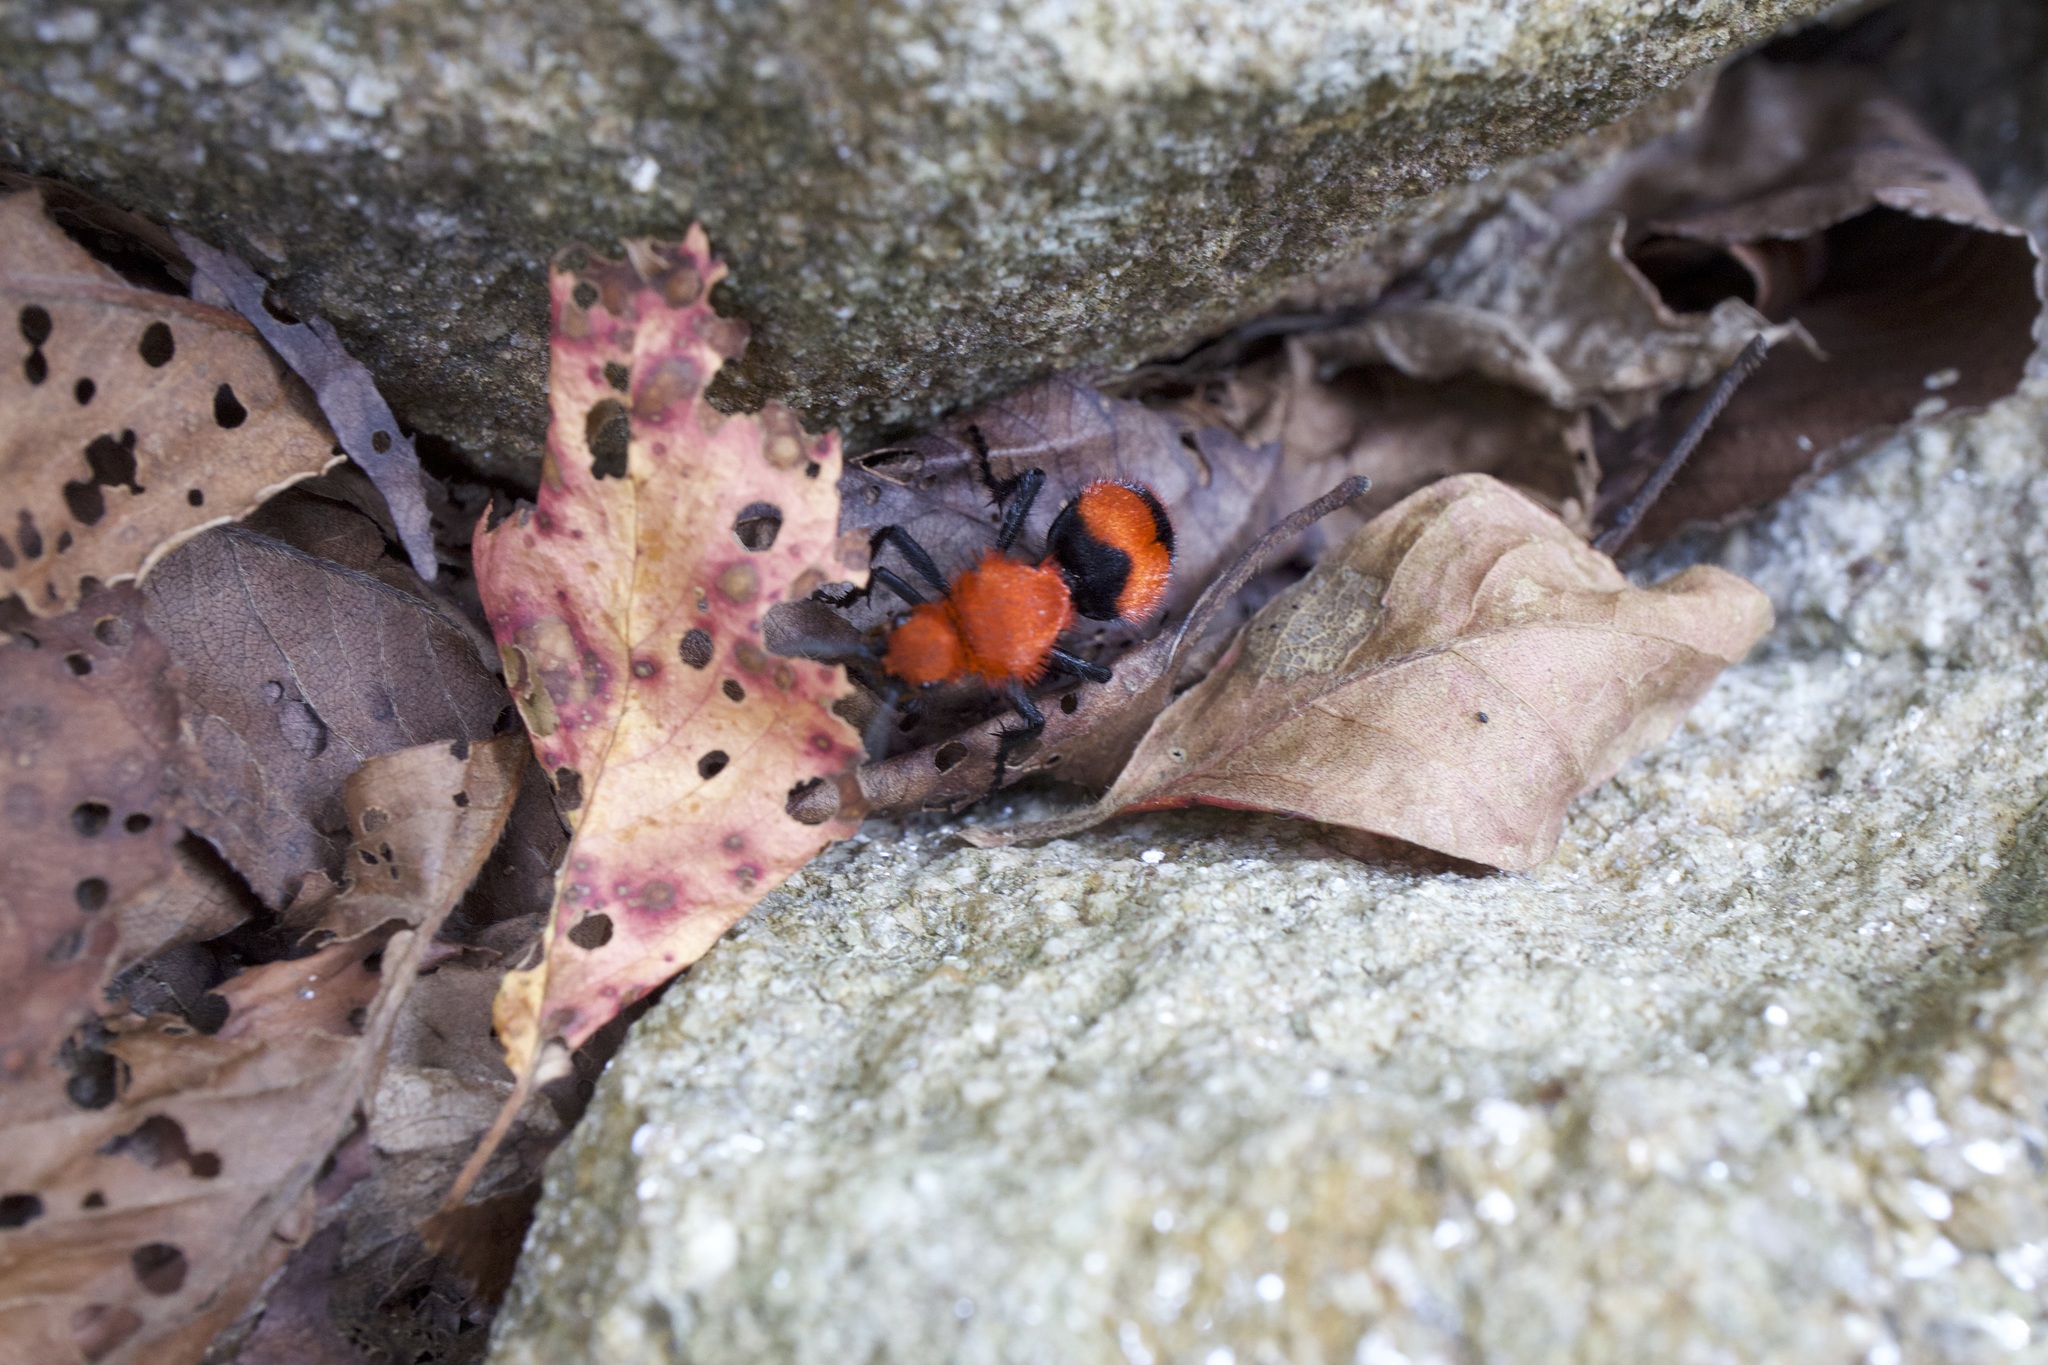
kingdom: Animalia
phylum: Arthropoda
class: Insecta
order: Hymenoptera
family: Mutillidae
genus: Dasymutilla
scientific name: Dasymutilla occidentalis
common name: Common eastern velvet ant
